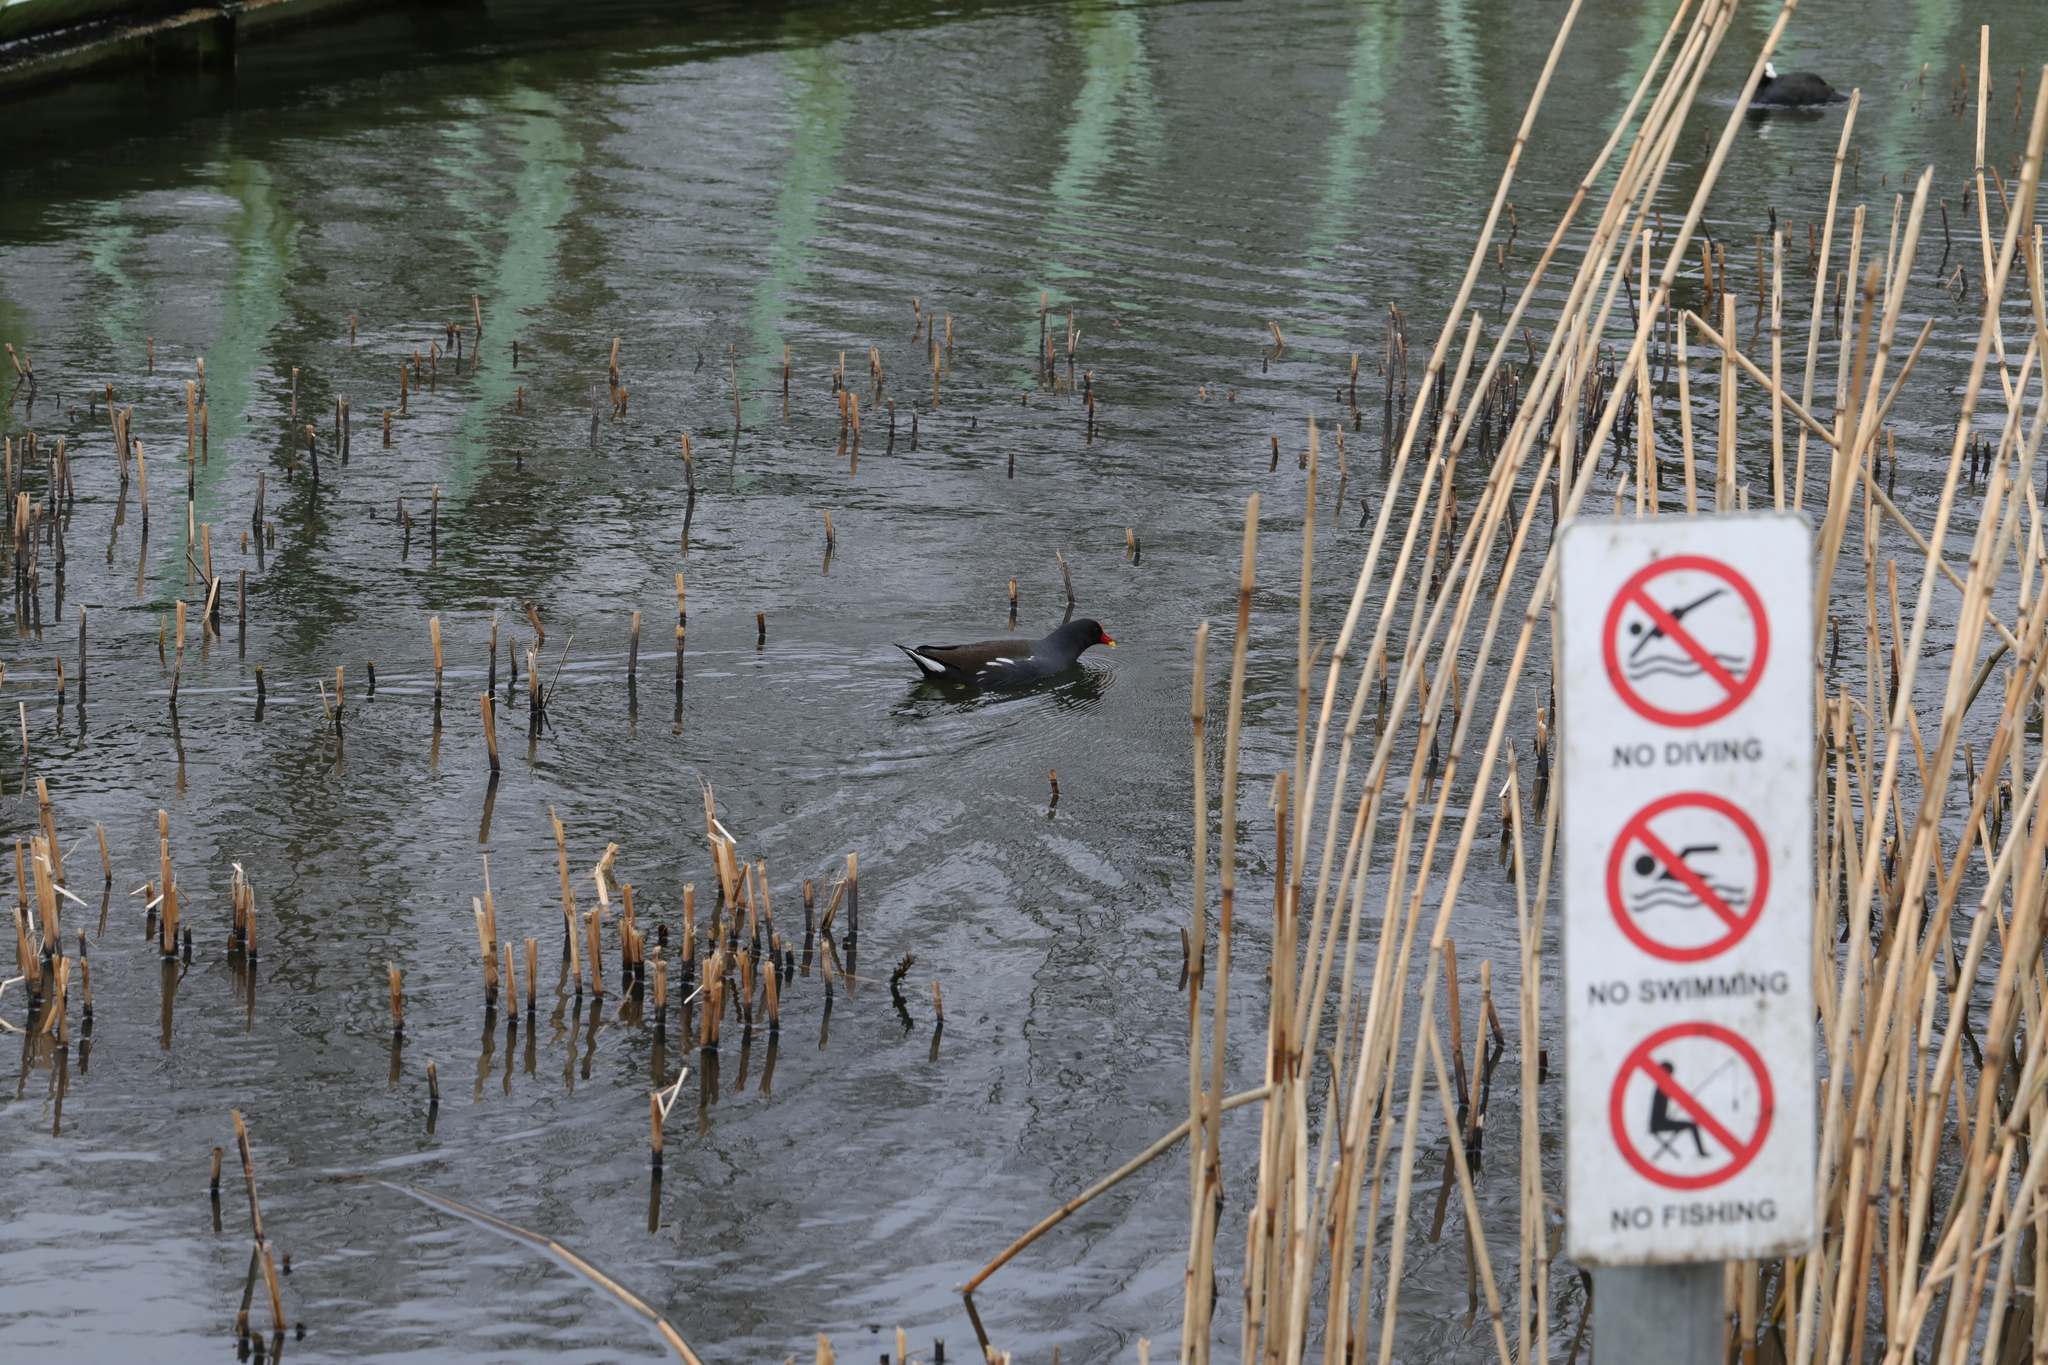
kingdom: Animalia
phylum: Chordata
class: Aves
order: Gruiformes
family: Rallidae
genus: Gallinula
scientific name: Gallinula chloropus
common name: Common moorhen
